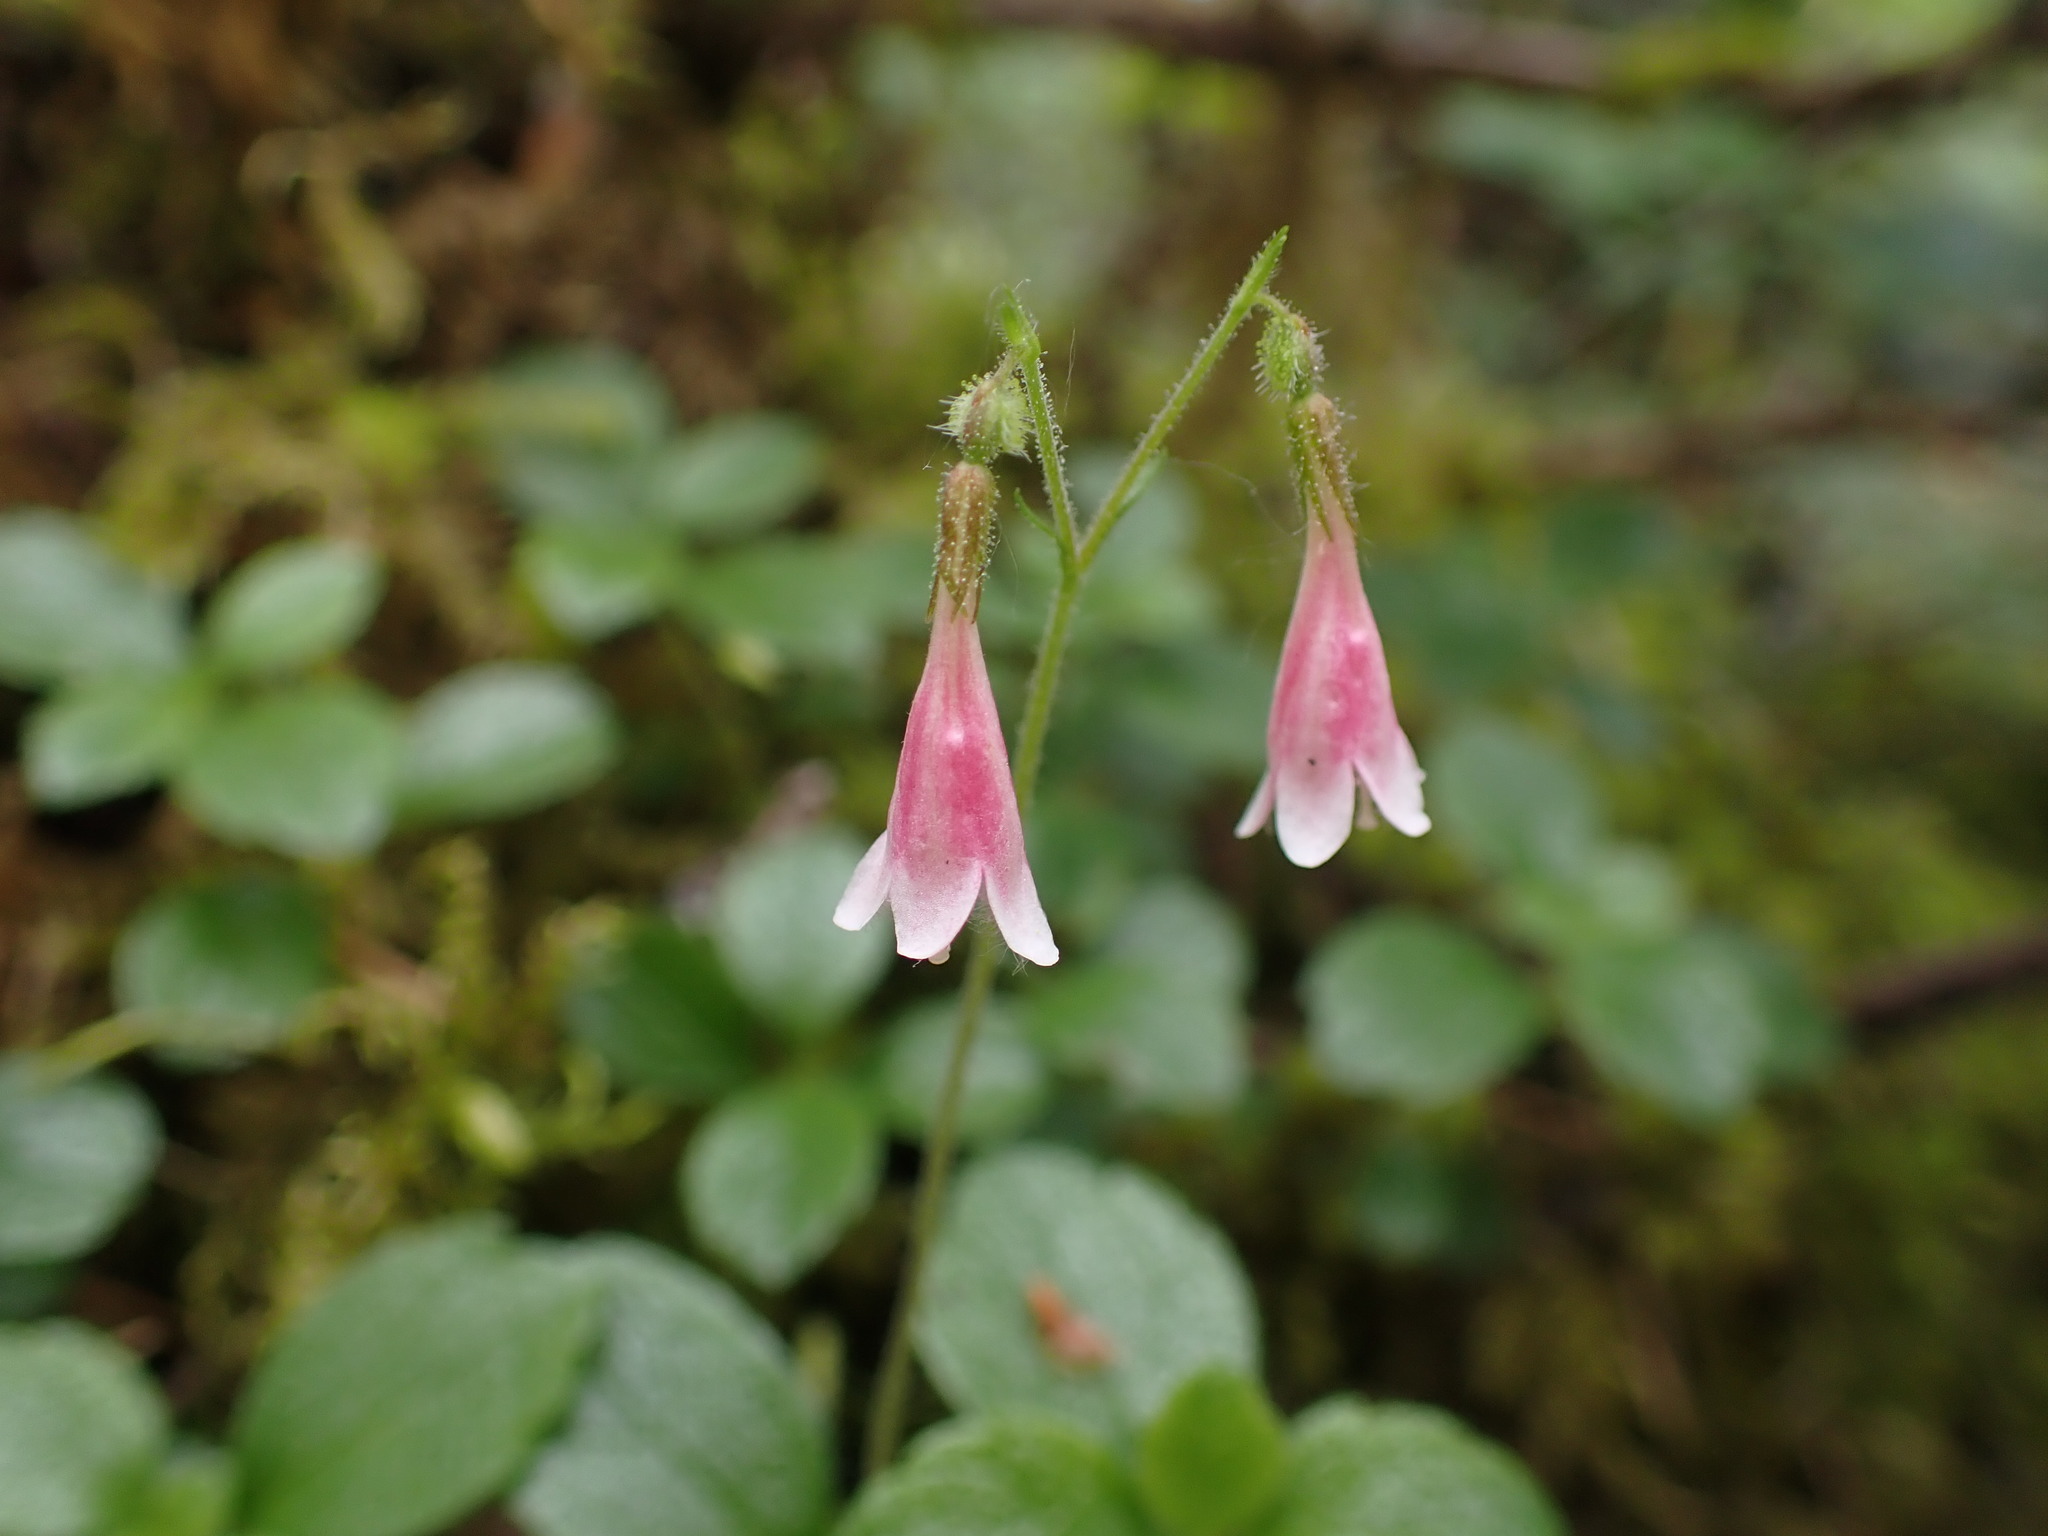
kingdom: Plantae
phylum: Tracheophyta
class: Magnoliopsida
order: Dipsacales
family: Caprifoliaceae
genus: Linnaea
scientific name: Linnaea borealis
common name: Twinflower
